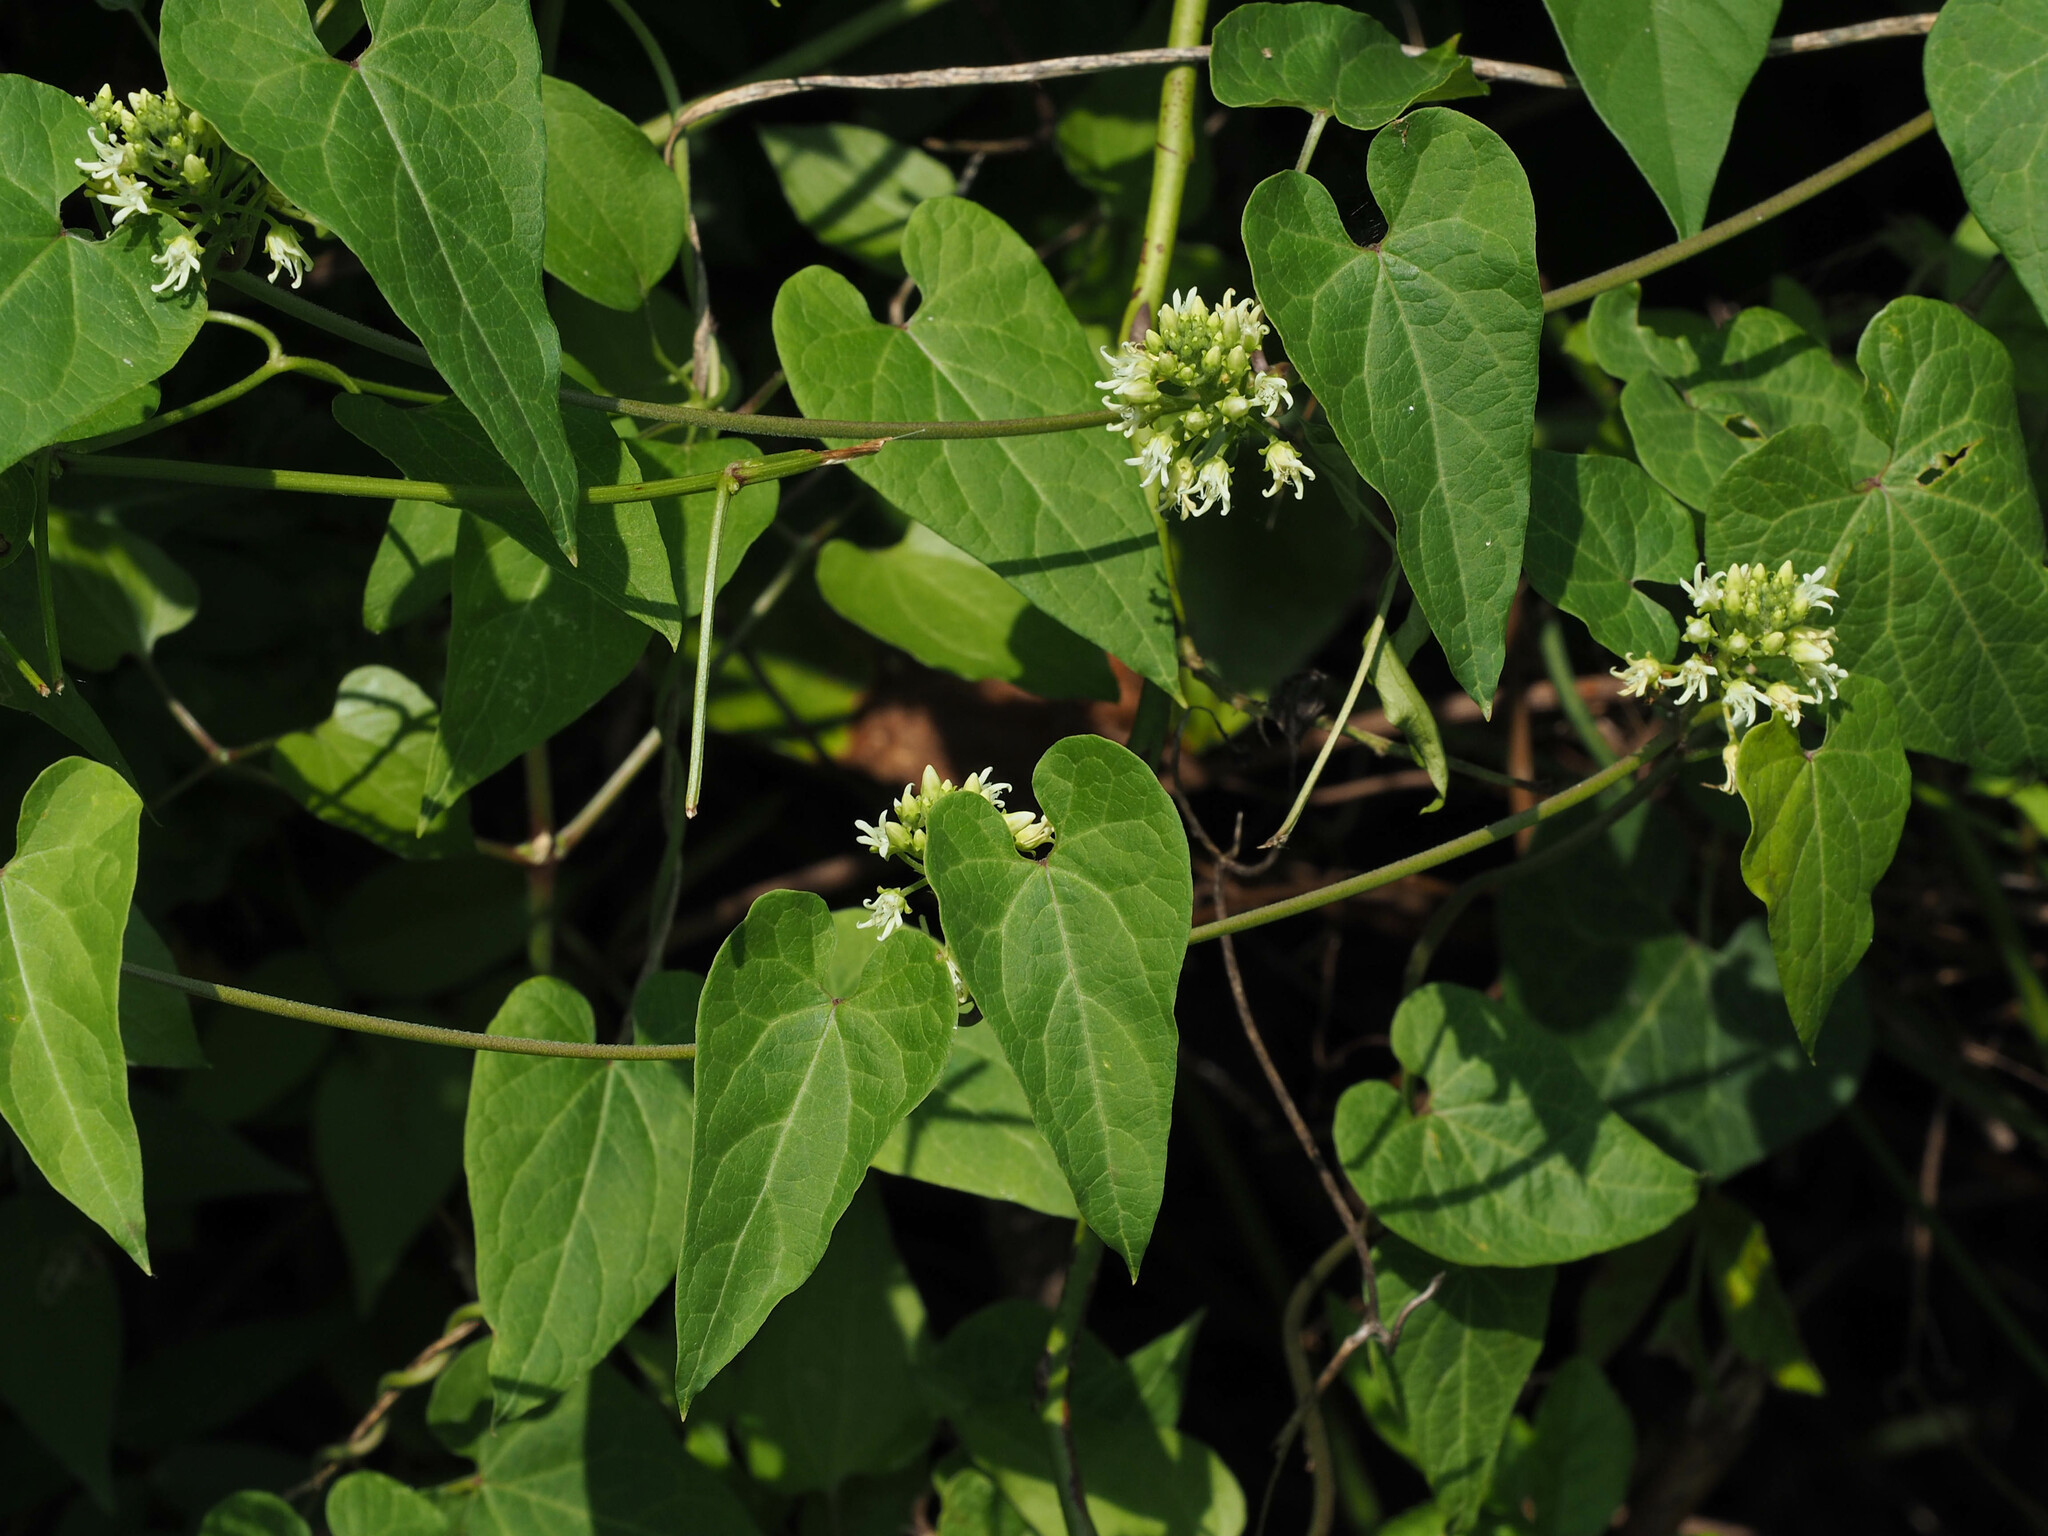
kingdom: Plantae
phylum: Tracheophyta
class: Magnoliopsida
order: Gentianales
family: Apocynaceae
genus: Cynanchum
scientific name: Cynanchum laeve
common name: Sandvine
